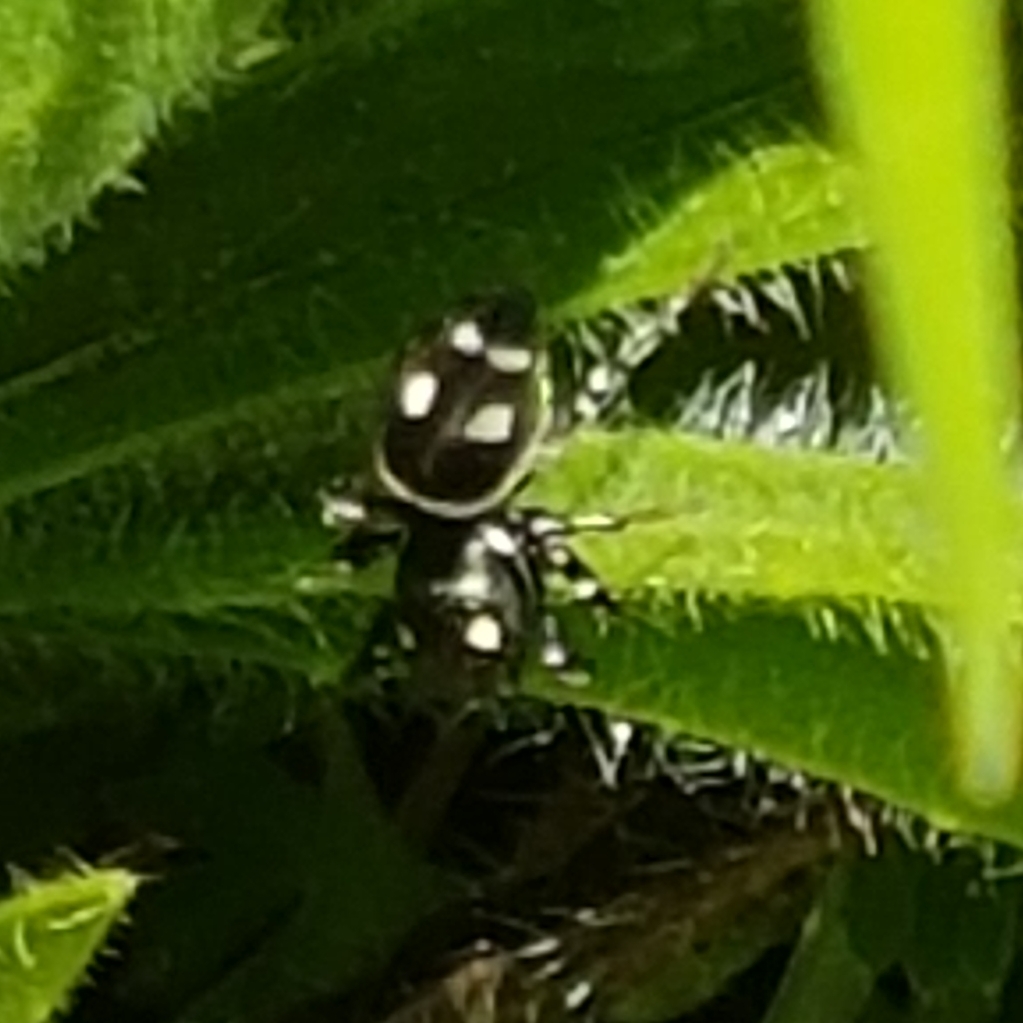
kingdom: Animalia
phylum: Arthropoda
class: Arachnida
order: Araneae
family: Salticidae
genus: Heliophanus
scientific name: Heliophanus apiatus
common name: Sun jumping spider
